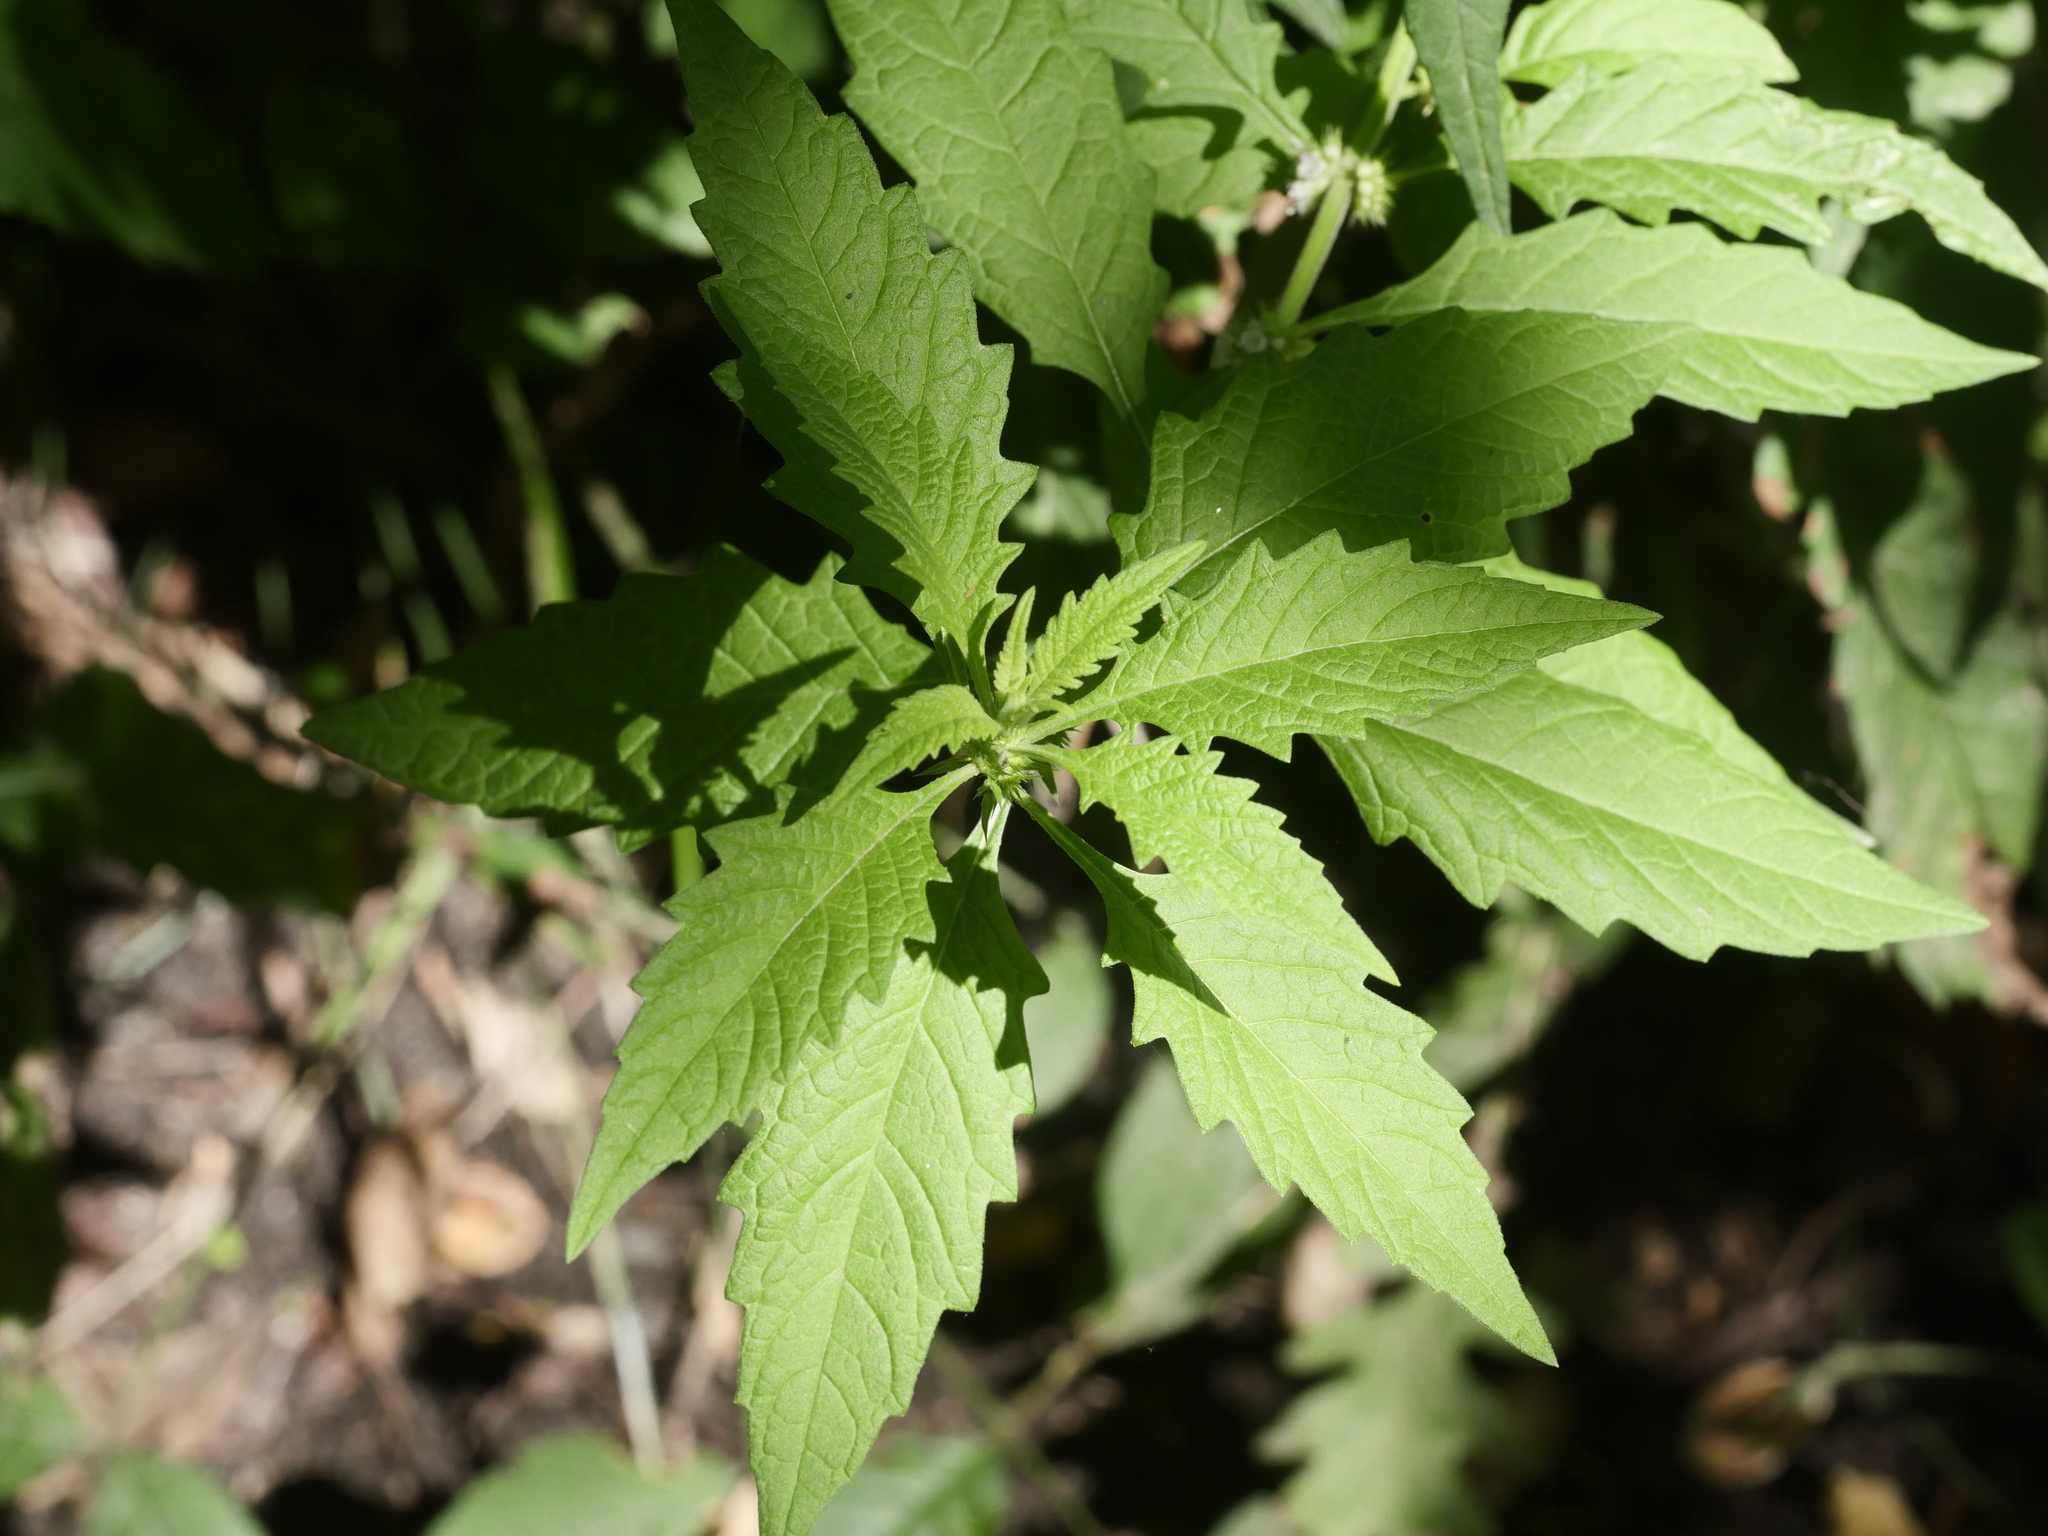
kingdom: Plantae
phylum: Tracheophyta
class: Magnoliopsida
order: Lamiales
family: Lamiaceae
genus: Lycopus
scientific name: Lycopus europaeus
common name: European bugleweed
